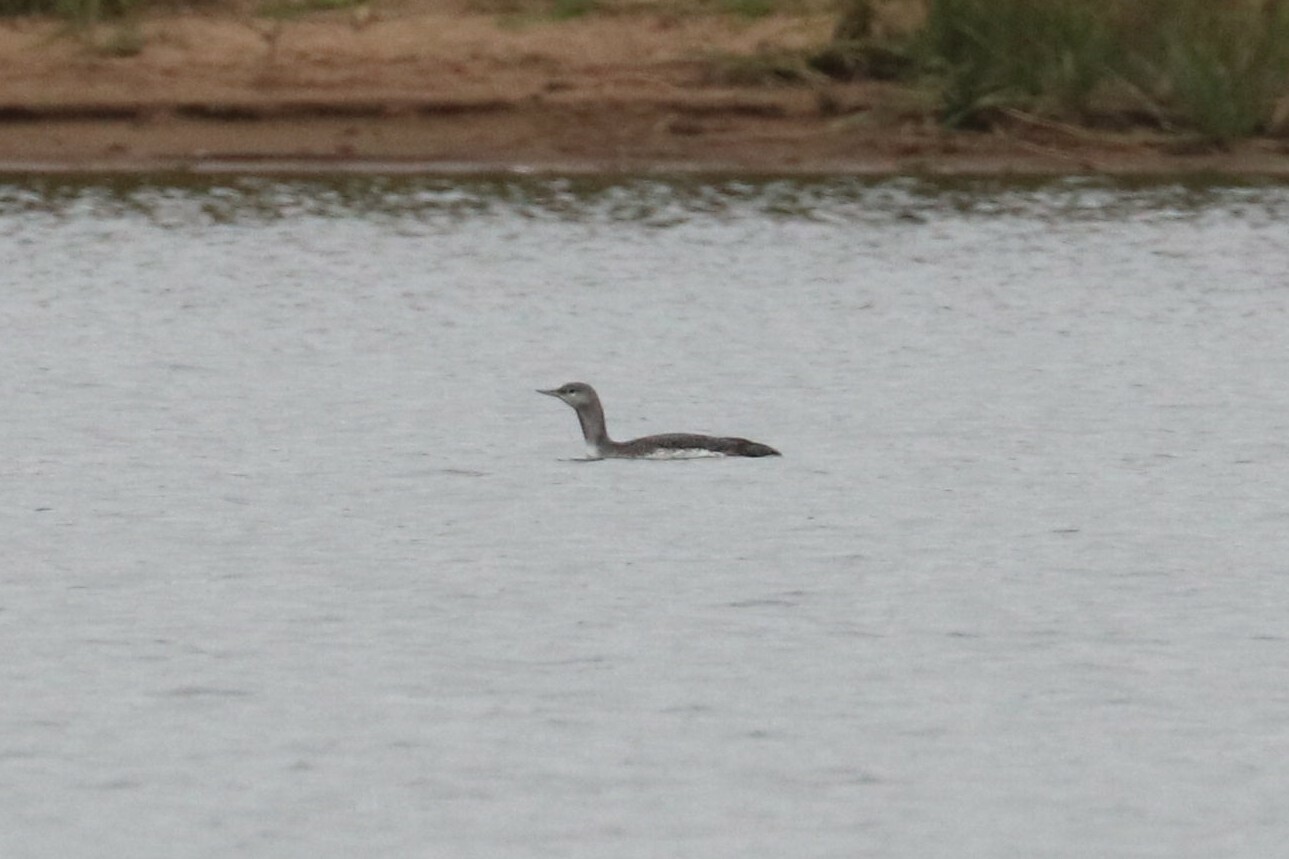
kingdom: Animalia
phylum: Chordata
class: Aves
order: Gaviiformes
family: Gaviidae
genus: Gavia
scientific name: Gavia stellata
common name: Red-throated loon
